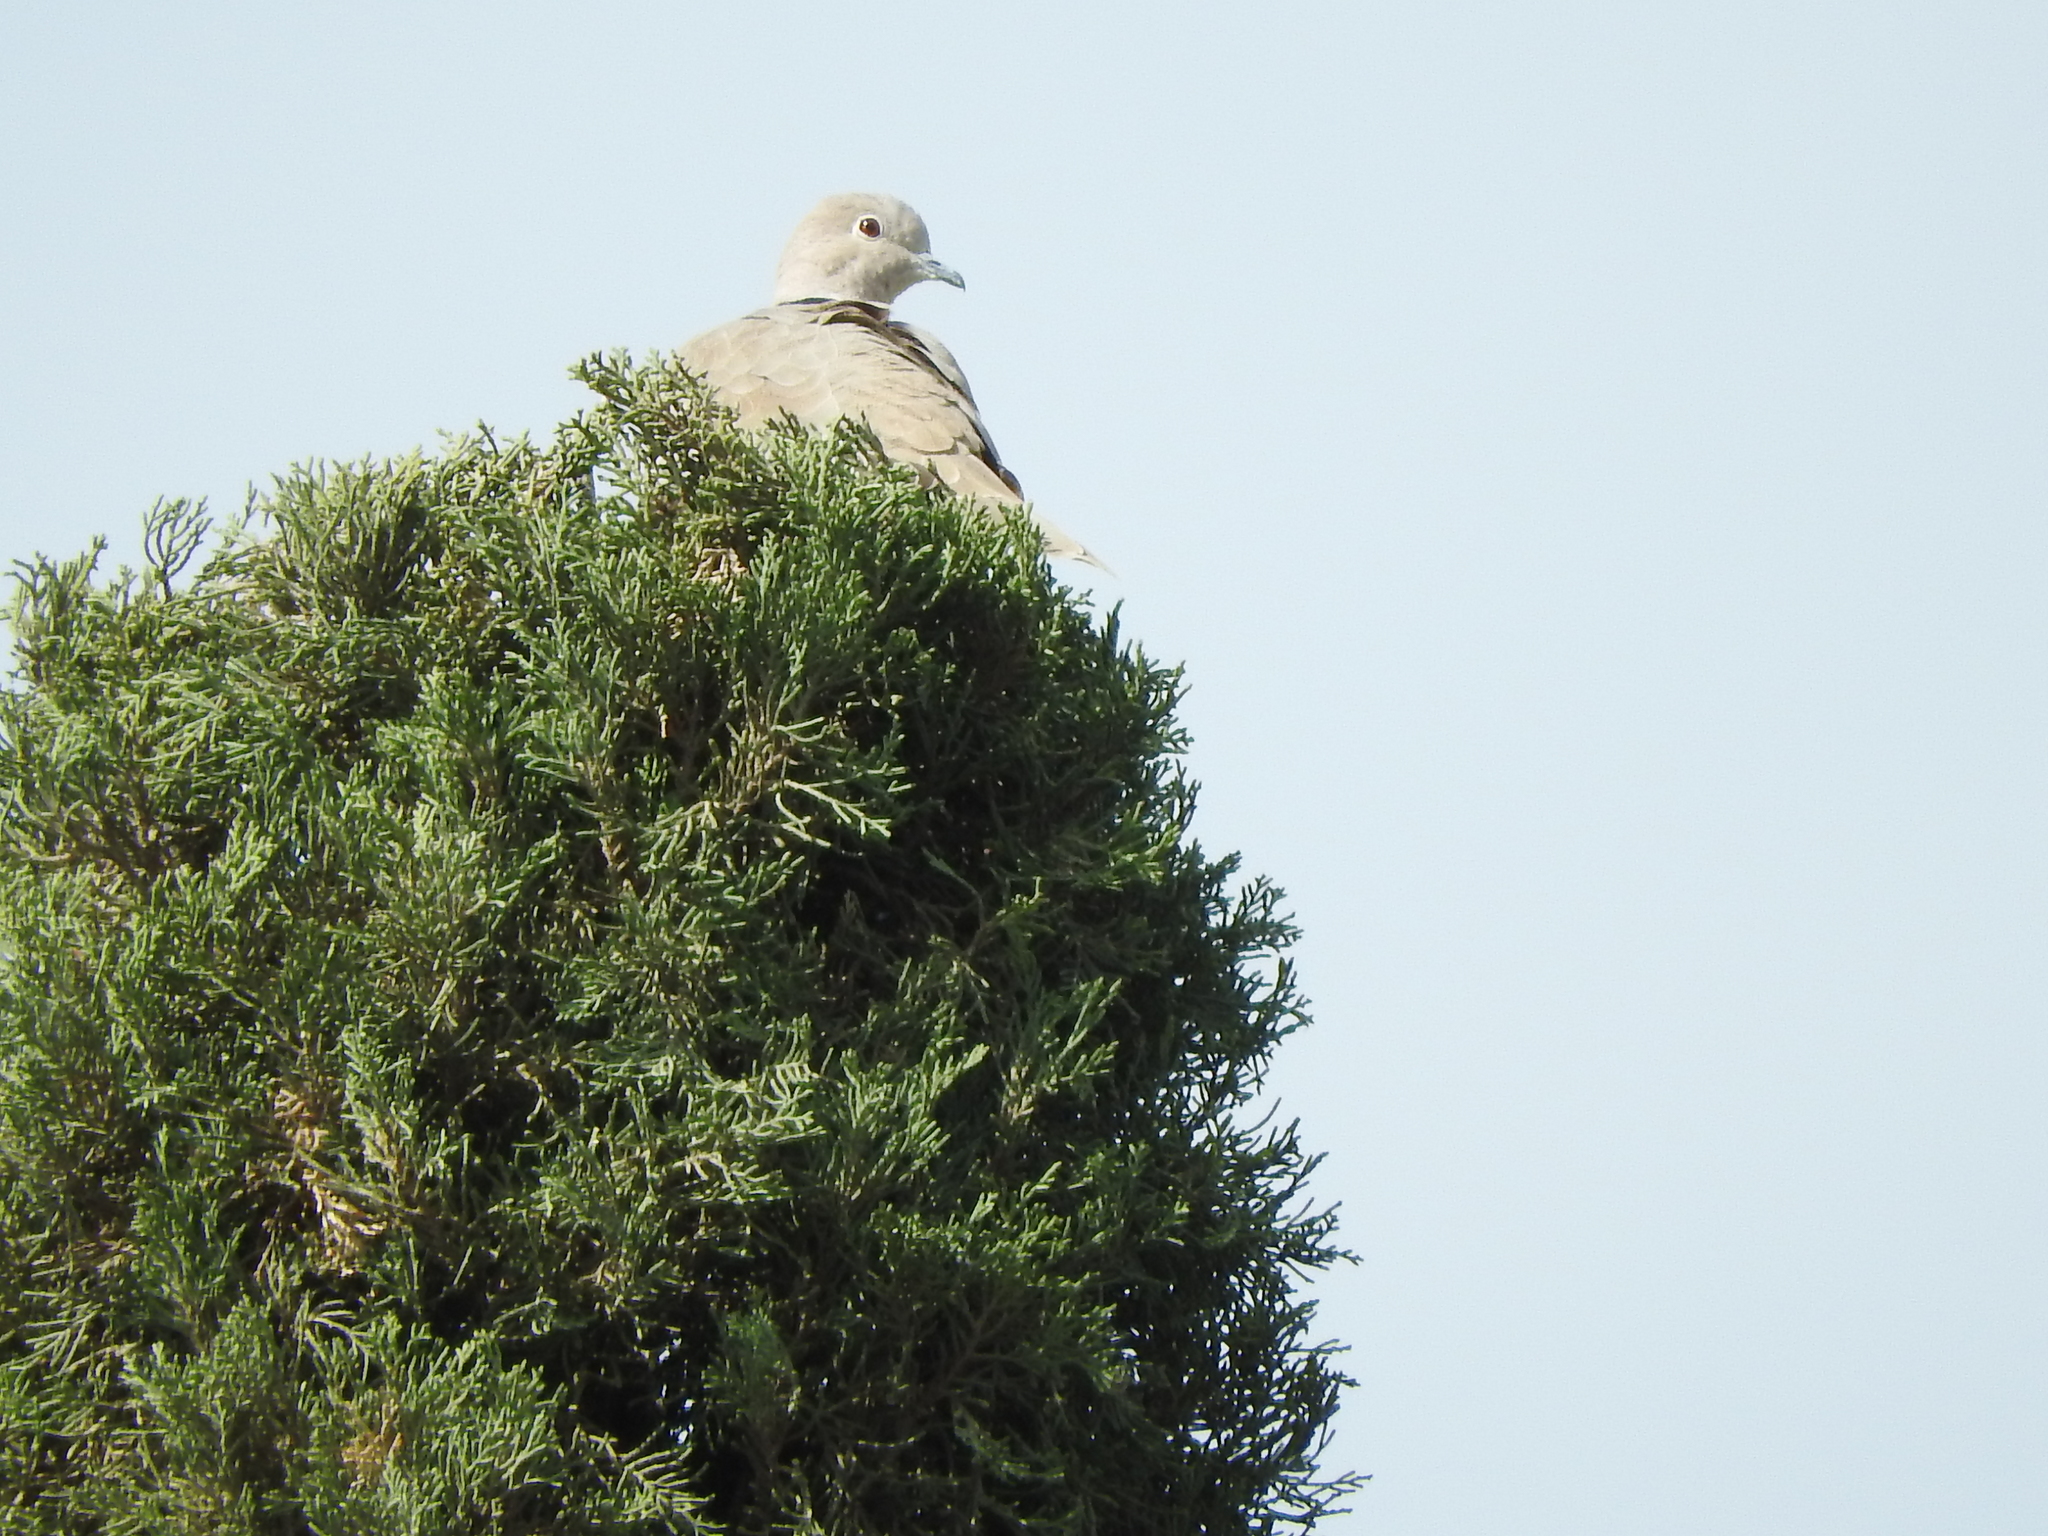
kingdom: Animalia
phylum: Chordata
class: Aves
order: Columbiformes
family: Columbidae
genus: Streptopelia
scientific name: Streptopelia decaocto
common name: Eurasian collared dove
